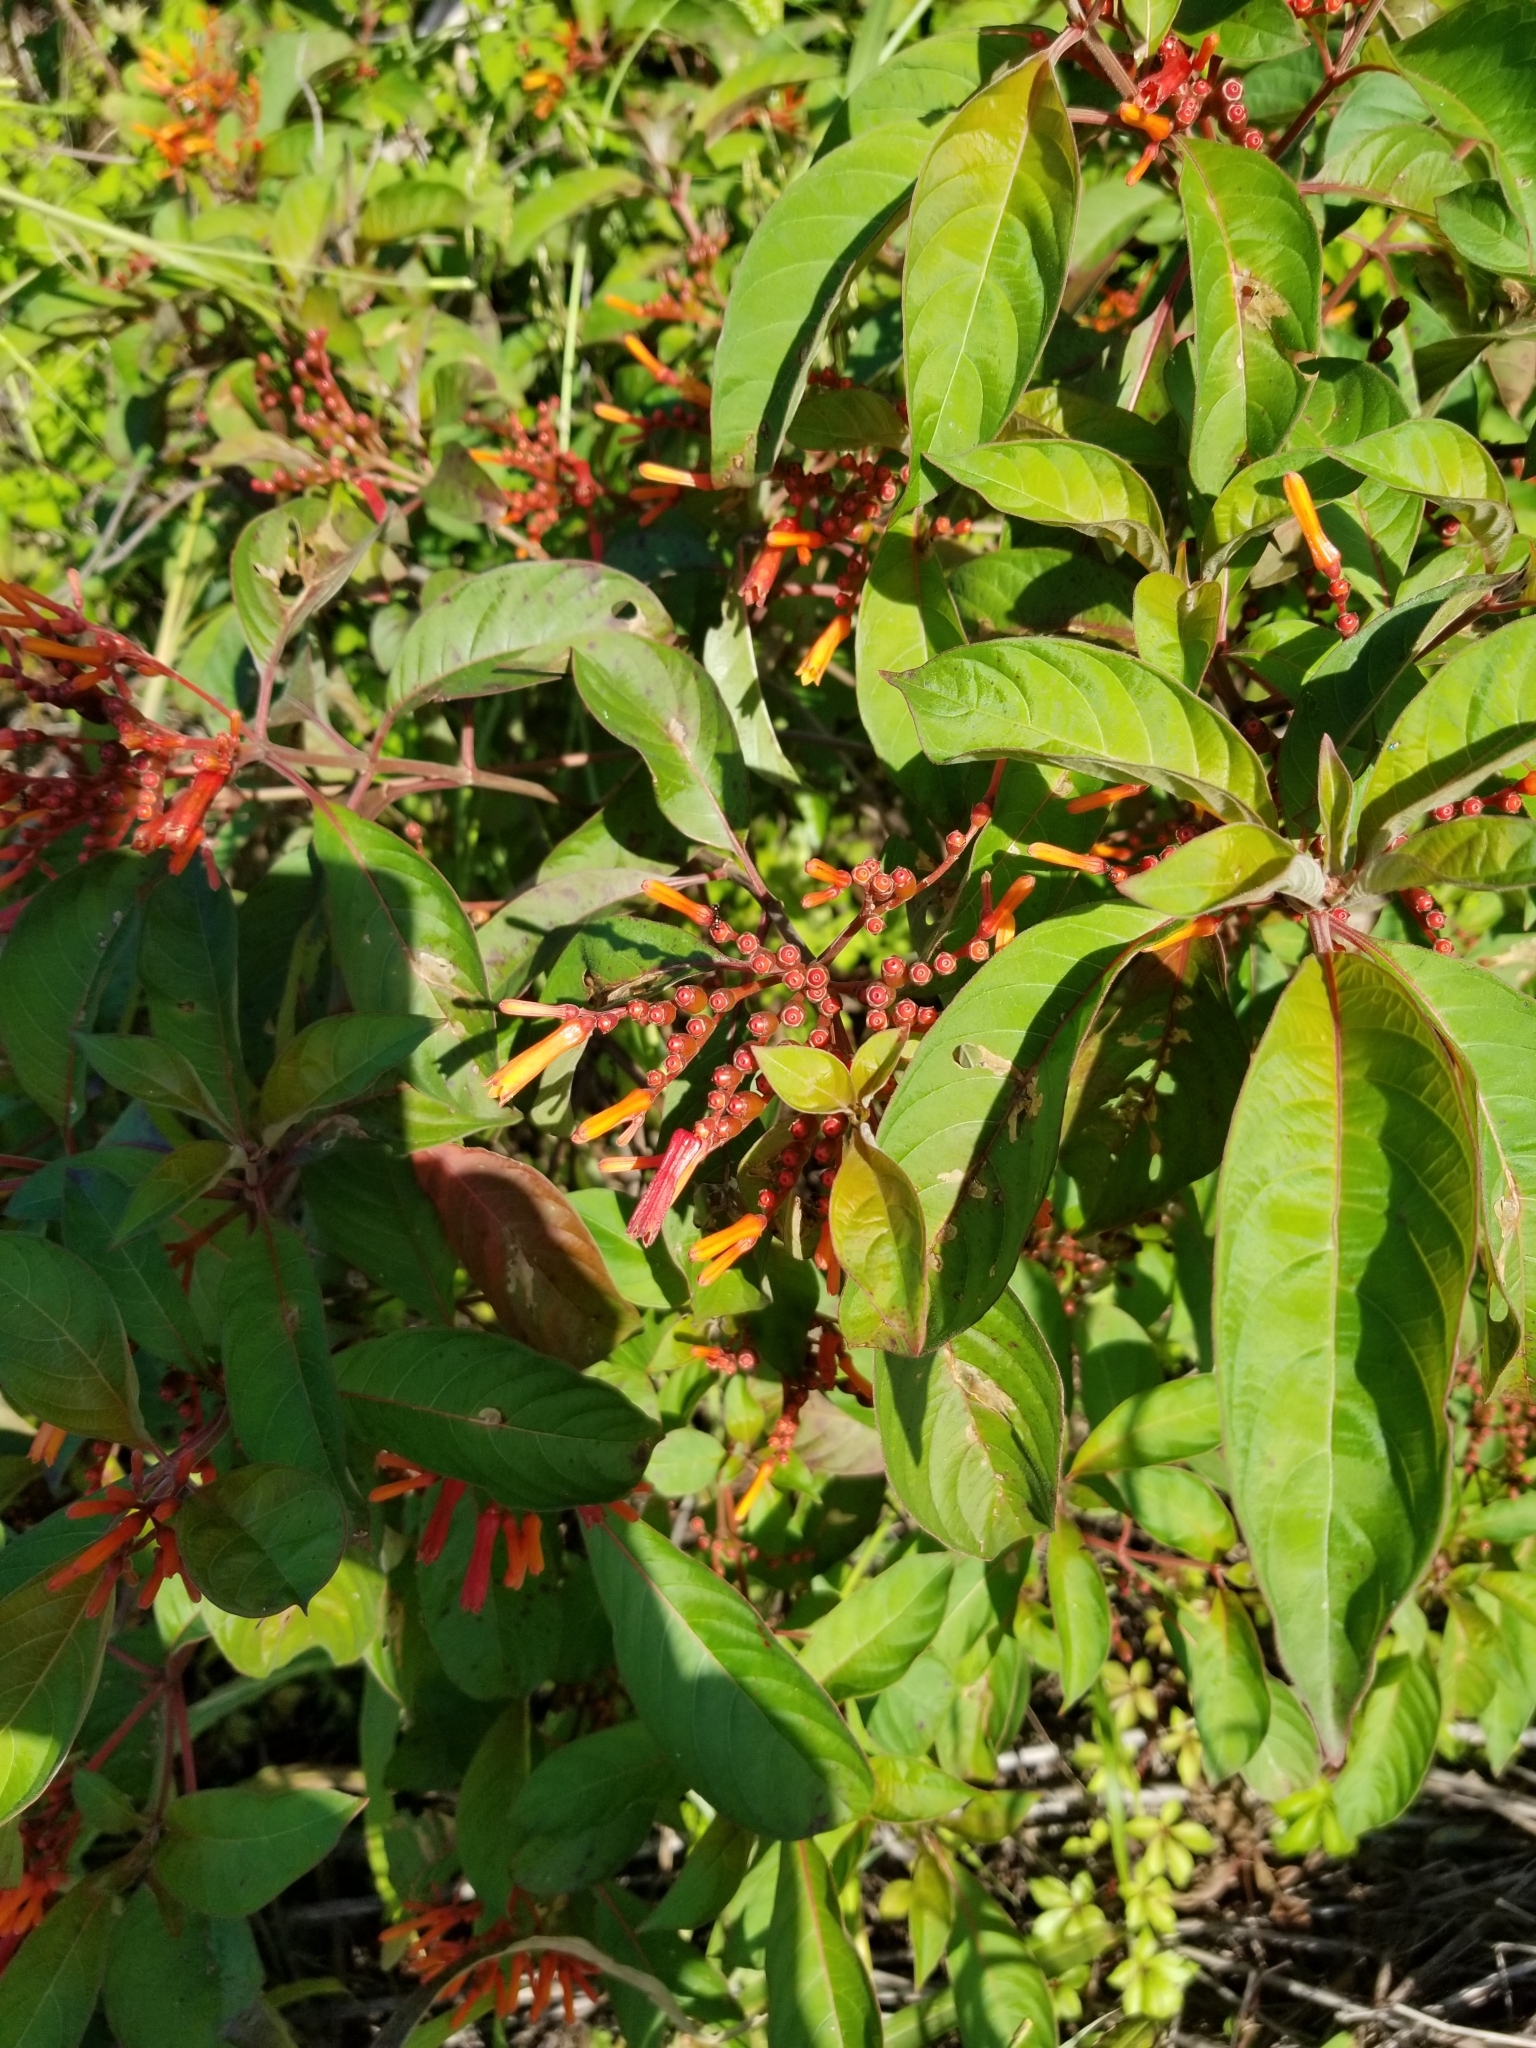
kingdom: Plantae
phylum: Tracheophyta
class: Magnoliopsida
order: Gentianales
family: Rubiaceae
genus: Hamelia
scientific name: Hamelia patens
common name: Redhead
